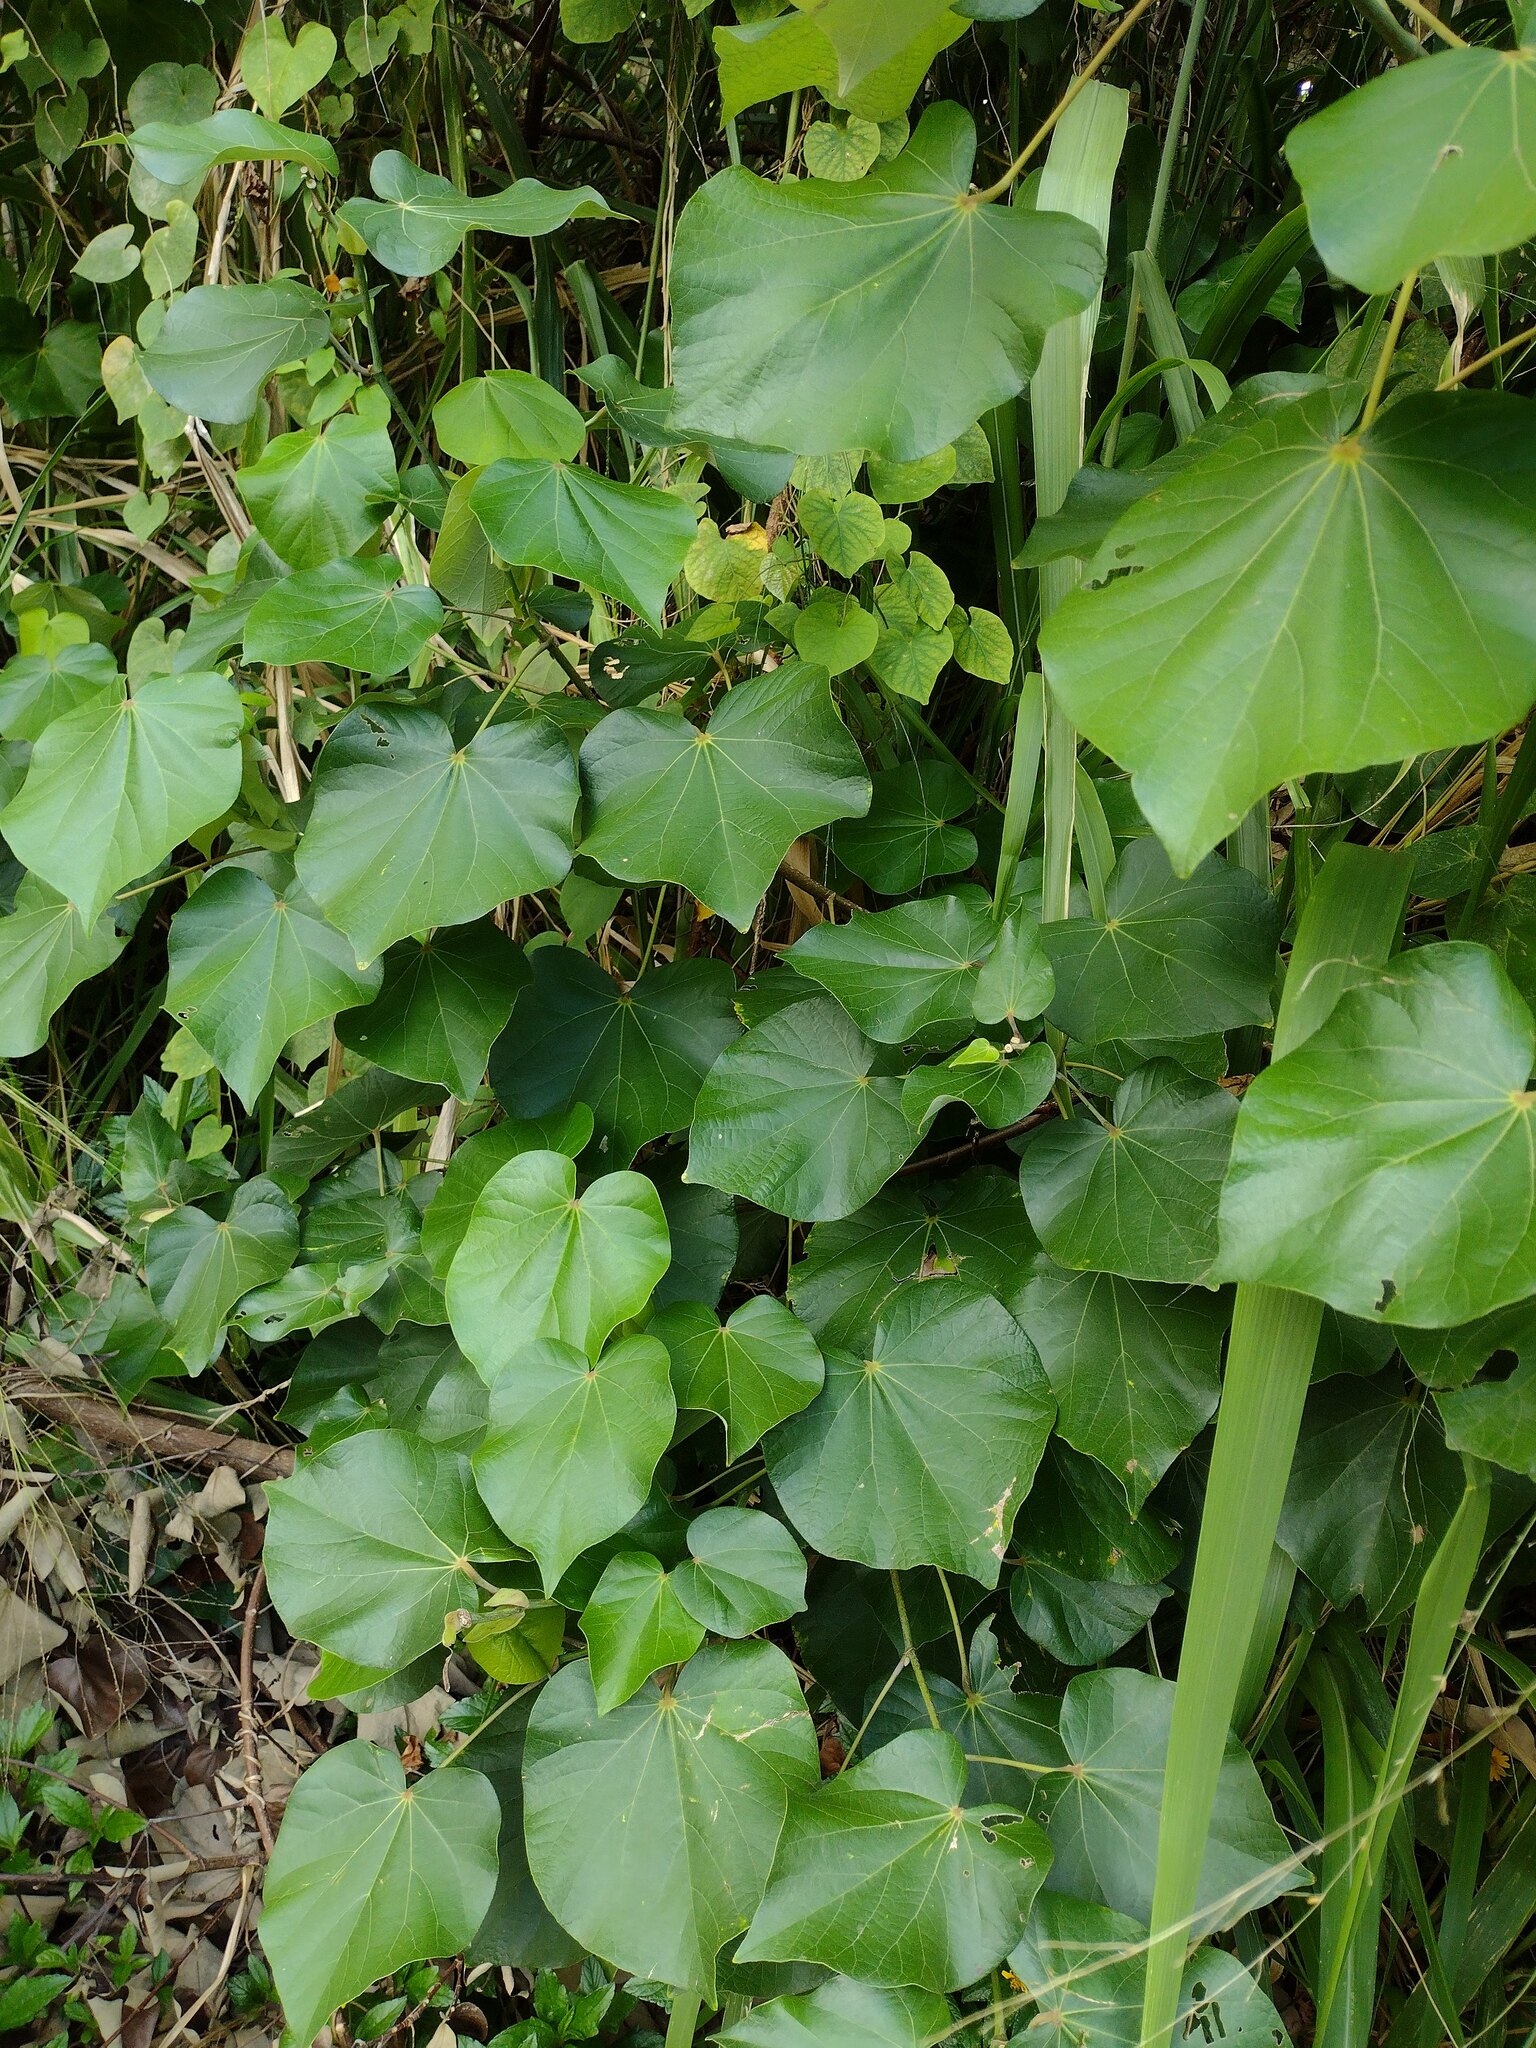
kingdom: Plantae
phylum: Tracheophyta
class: Magnoliopsida
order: Malvales
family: Malvaceae
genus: Talipariti
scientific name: Talipariti tiliaceum
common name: Sea hibiscus
